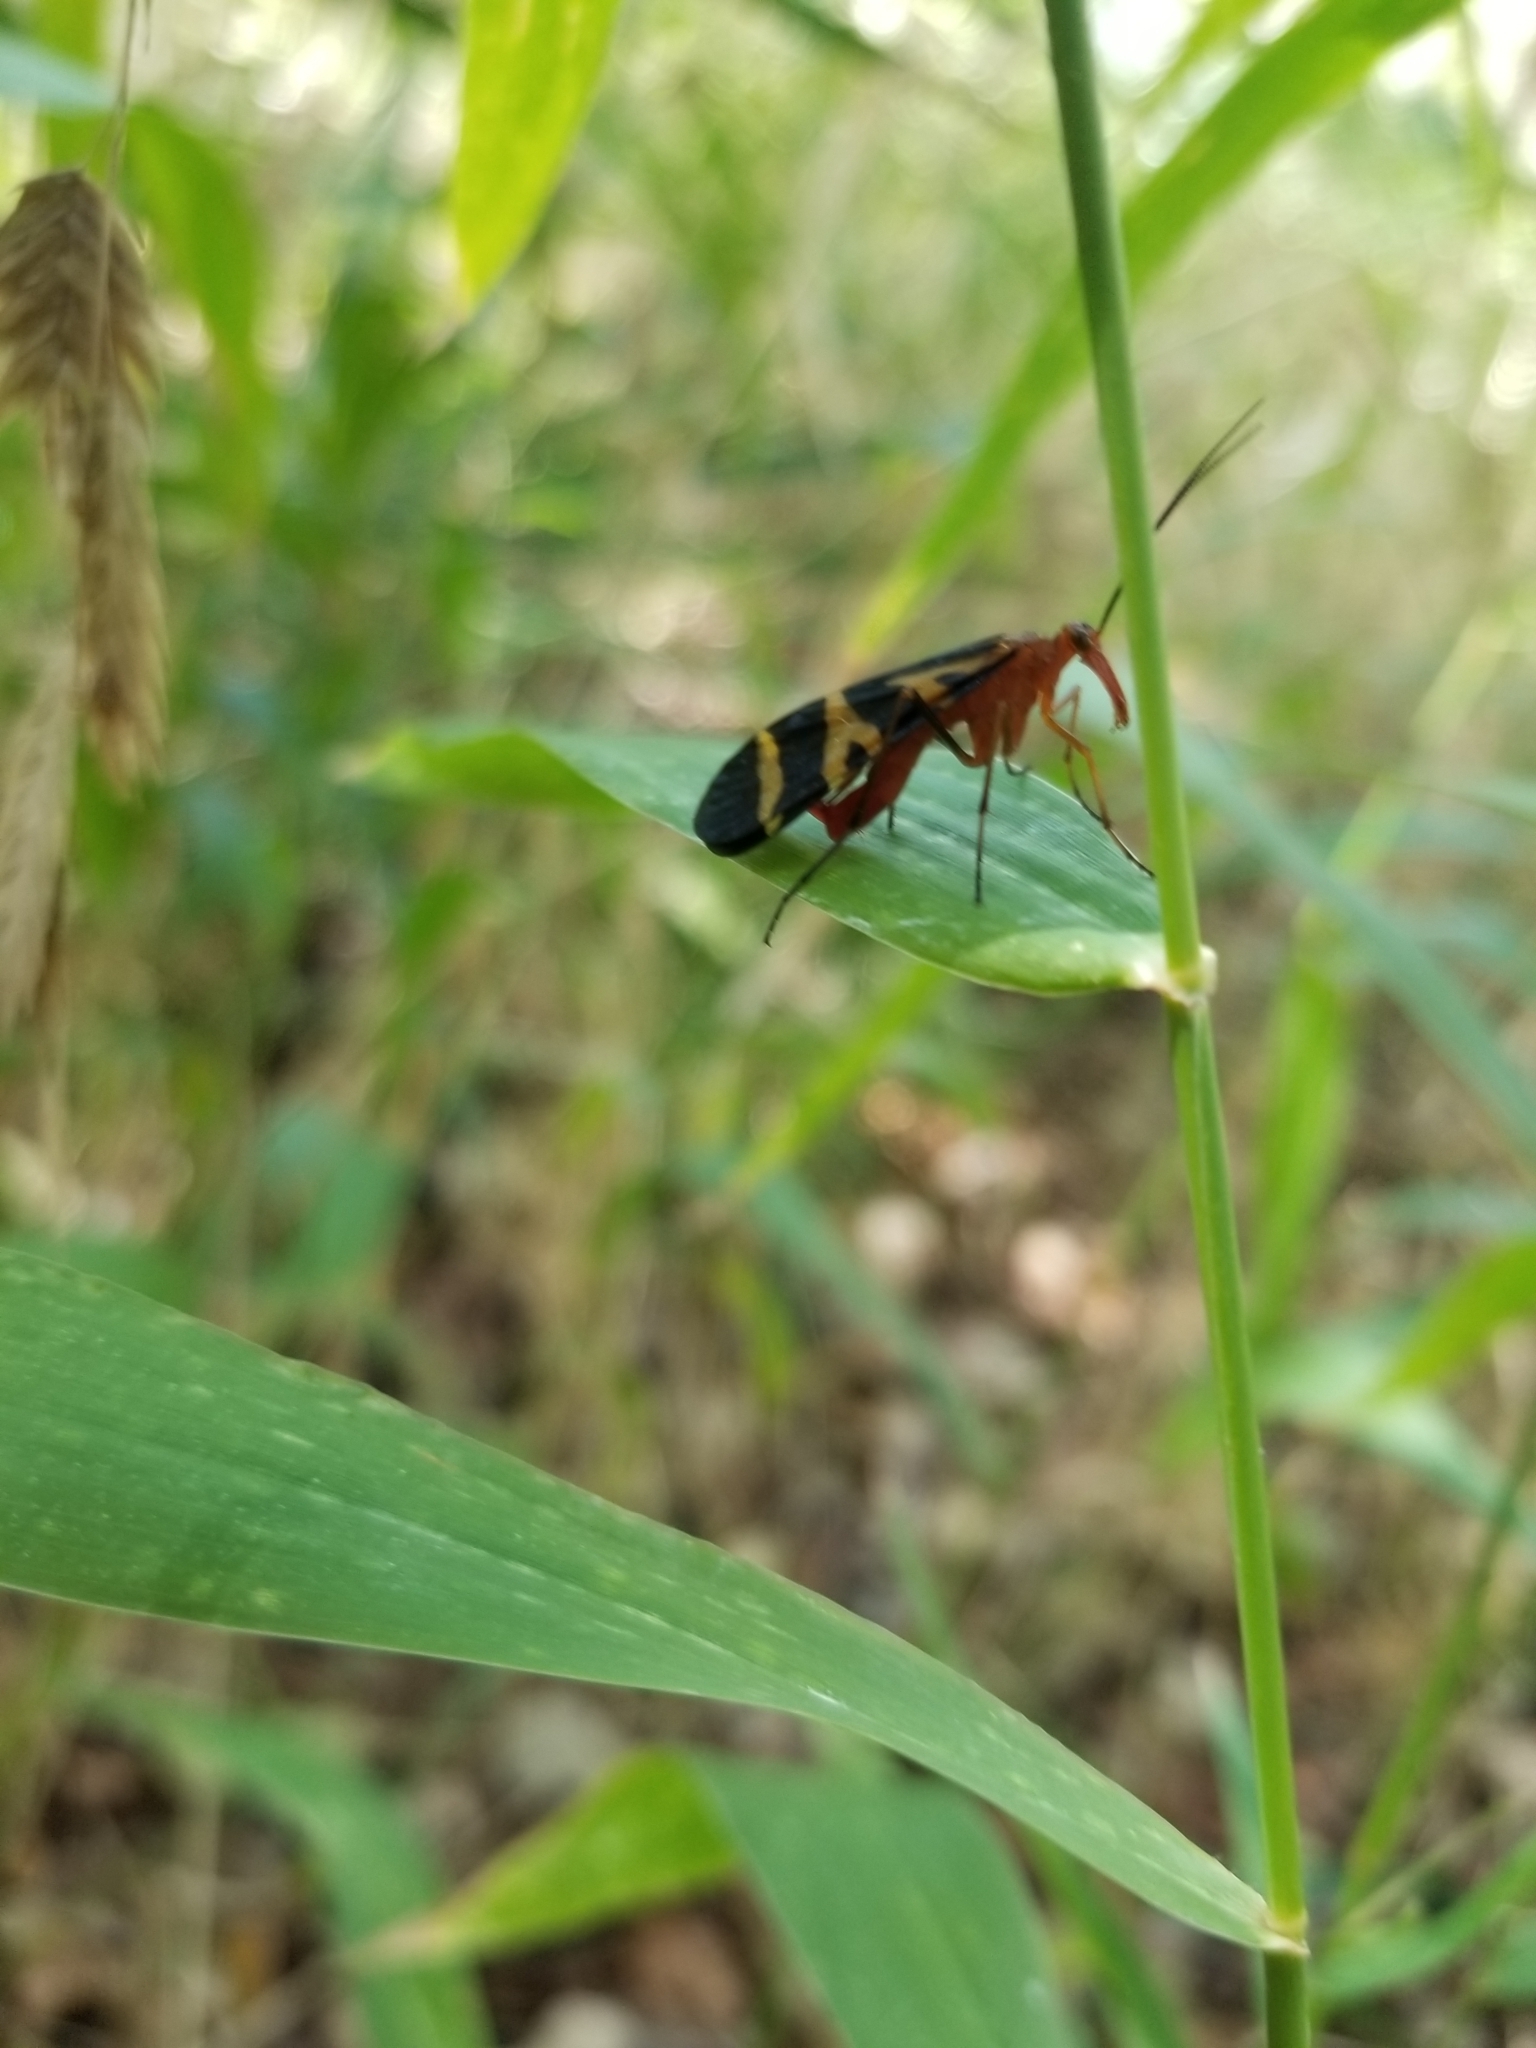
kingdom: Animalia
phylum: Arthropoda
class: Insecta
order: Mecoptera
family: Panorpidae
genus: Panorpa
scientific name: Panorpa nuptialis
